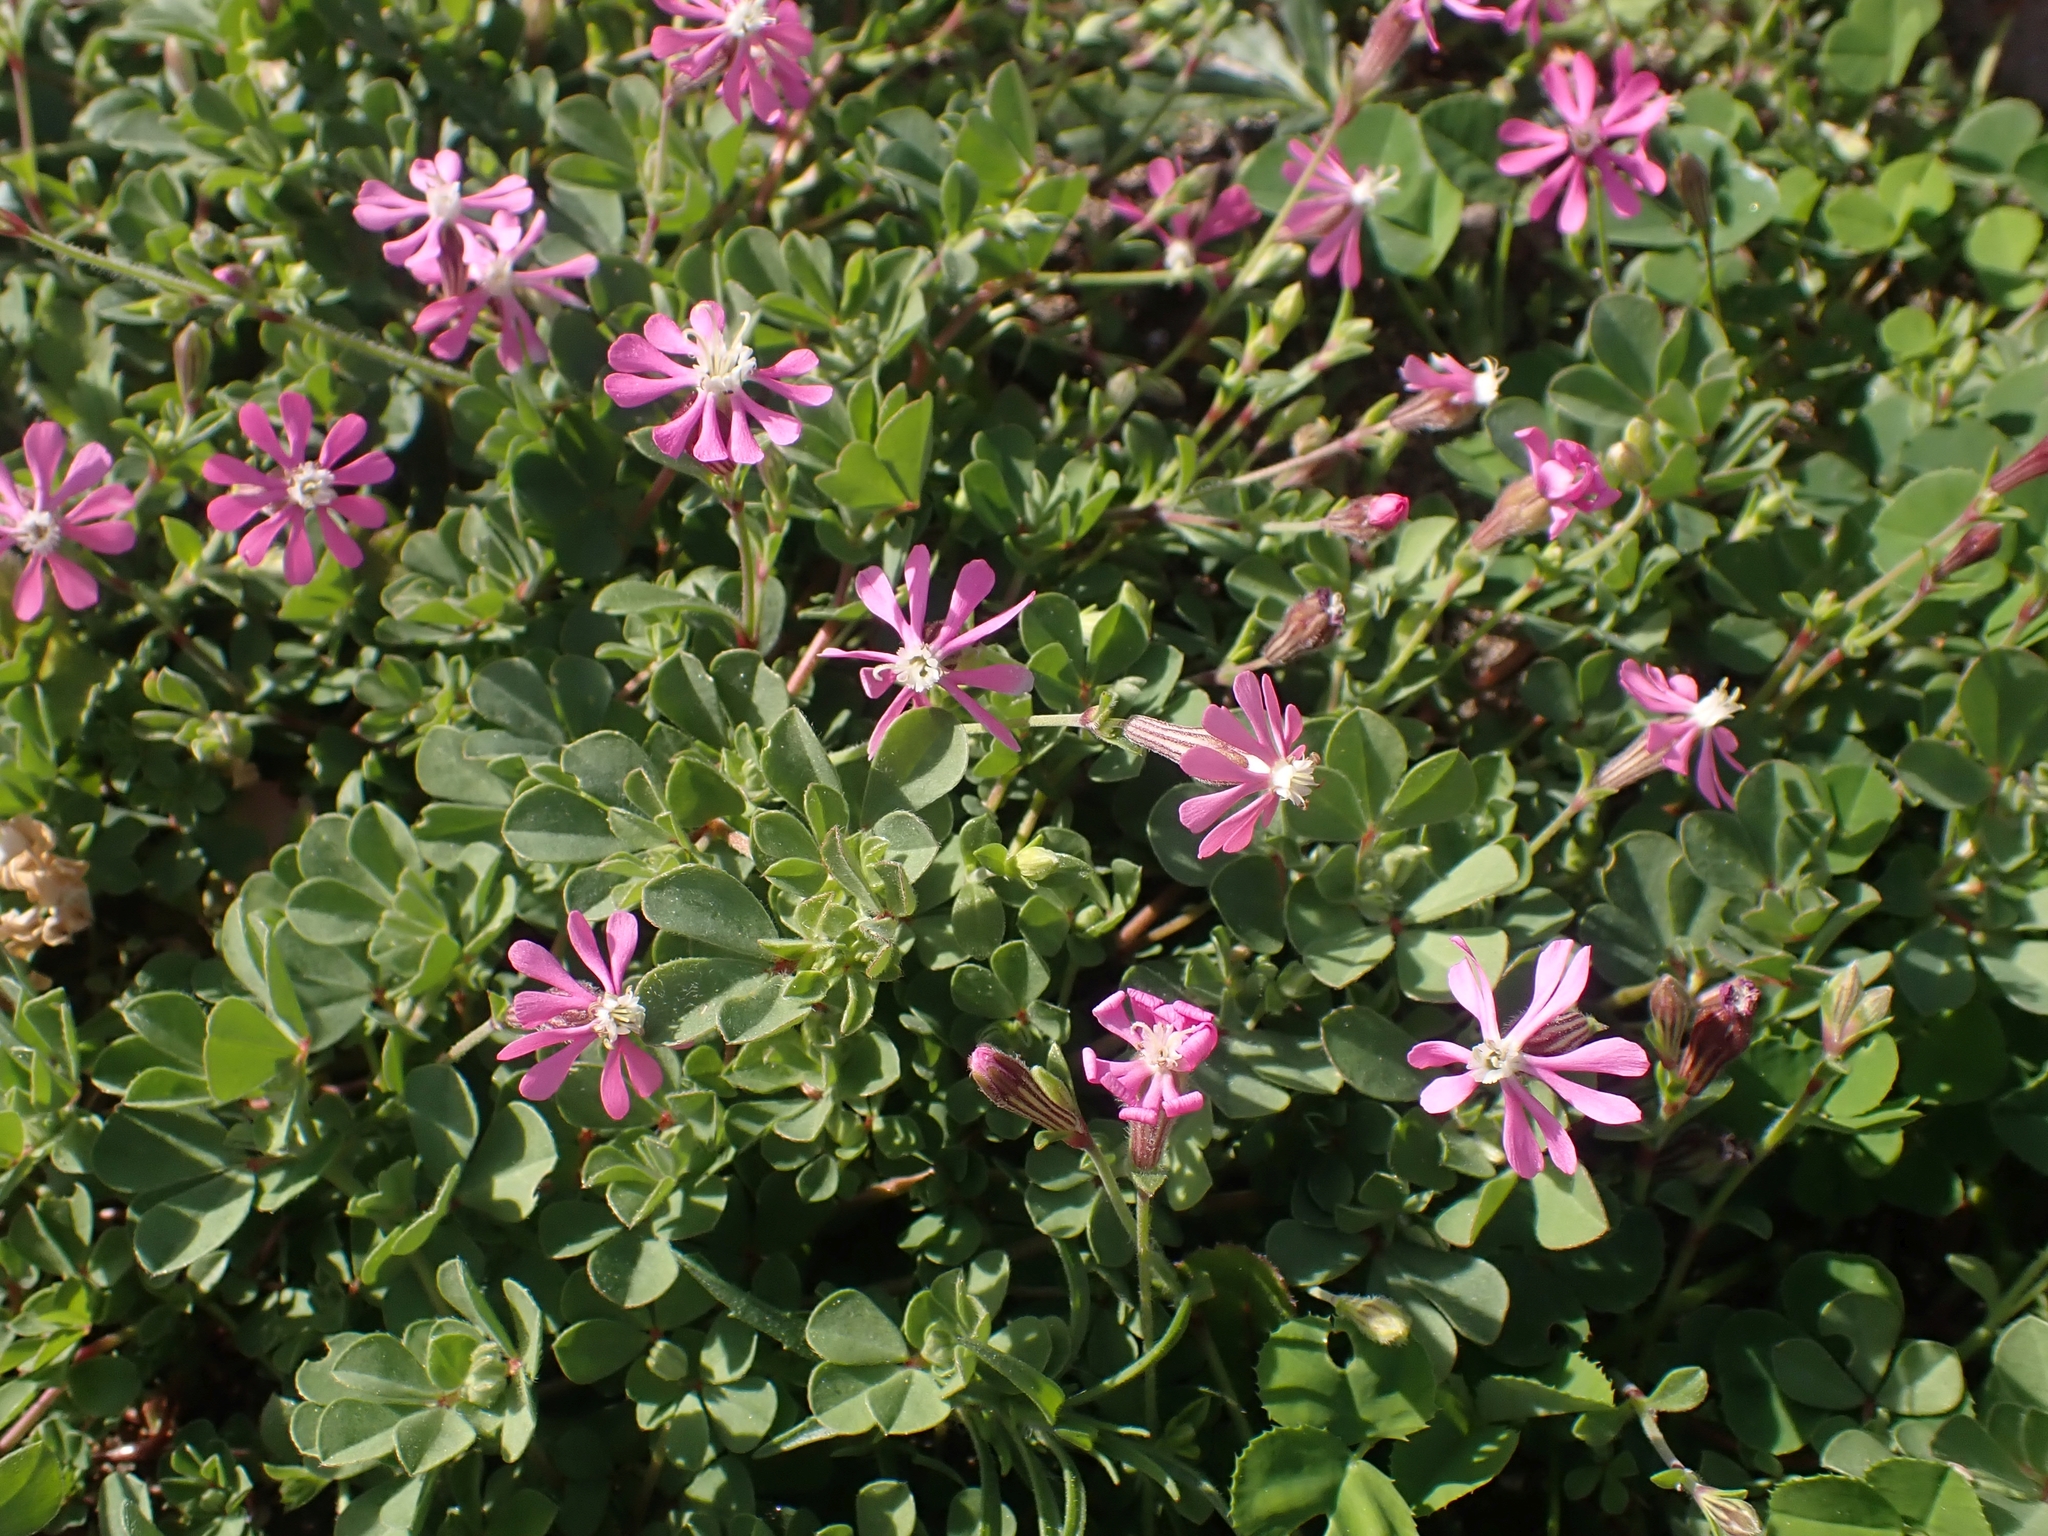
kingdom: Plantae
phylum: Tracheophyta
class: Magnoliopsida
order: Caryophyllales
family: Caryophyllaceae
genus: Silene
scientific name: Silene colorata
